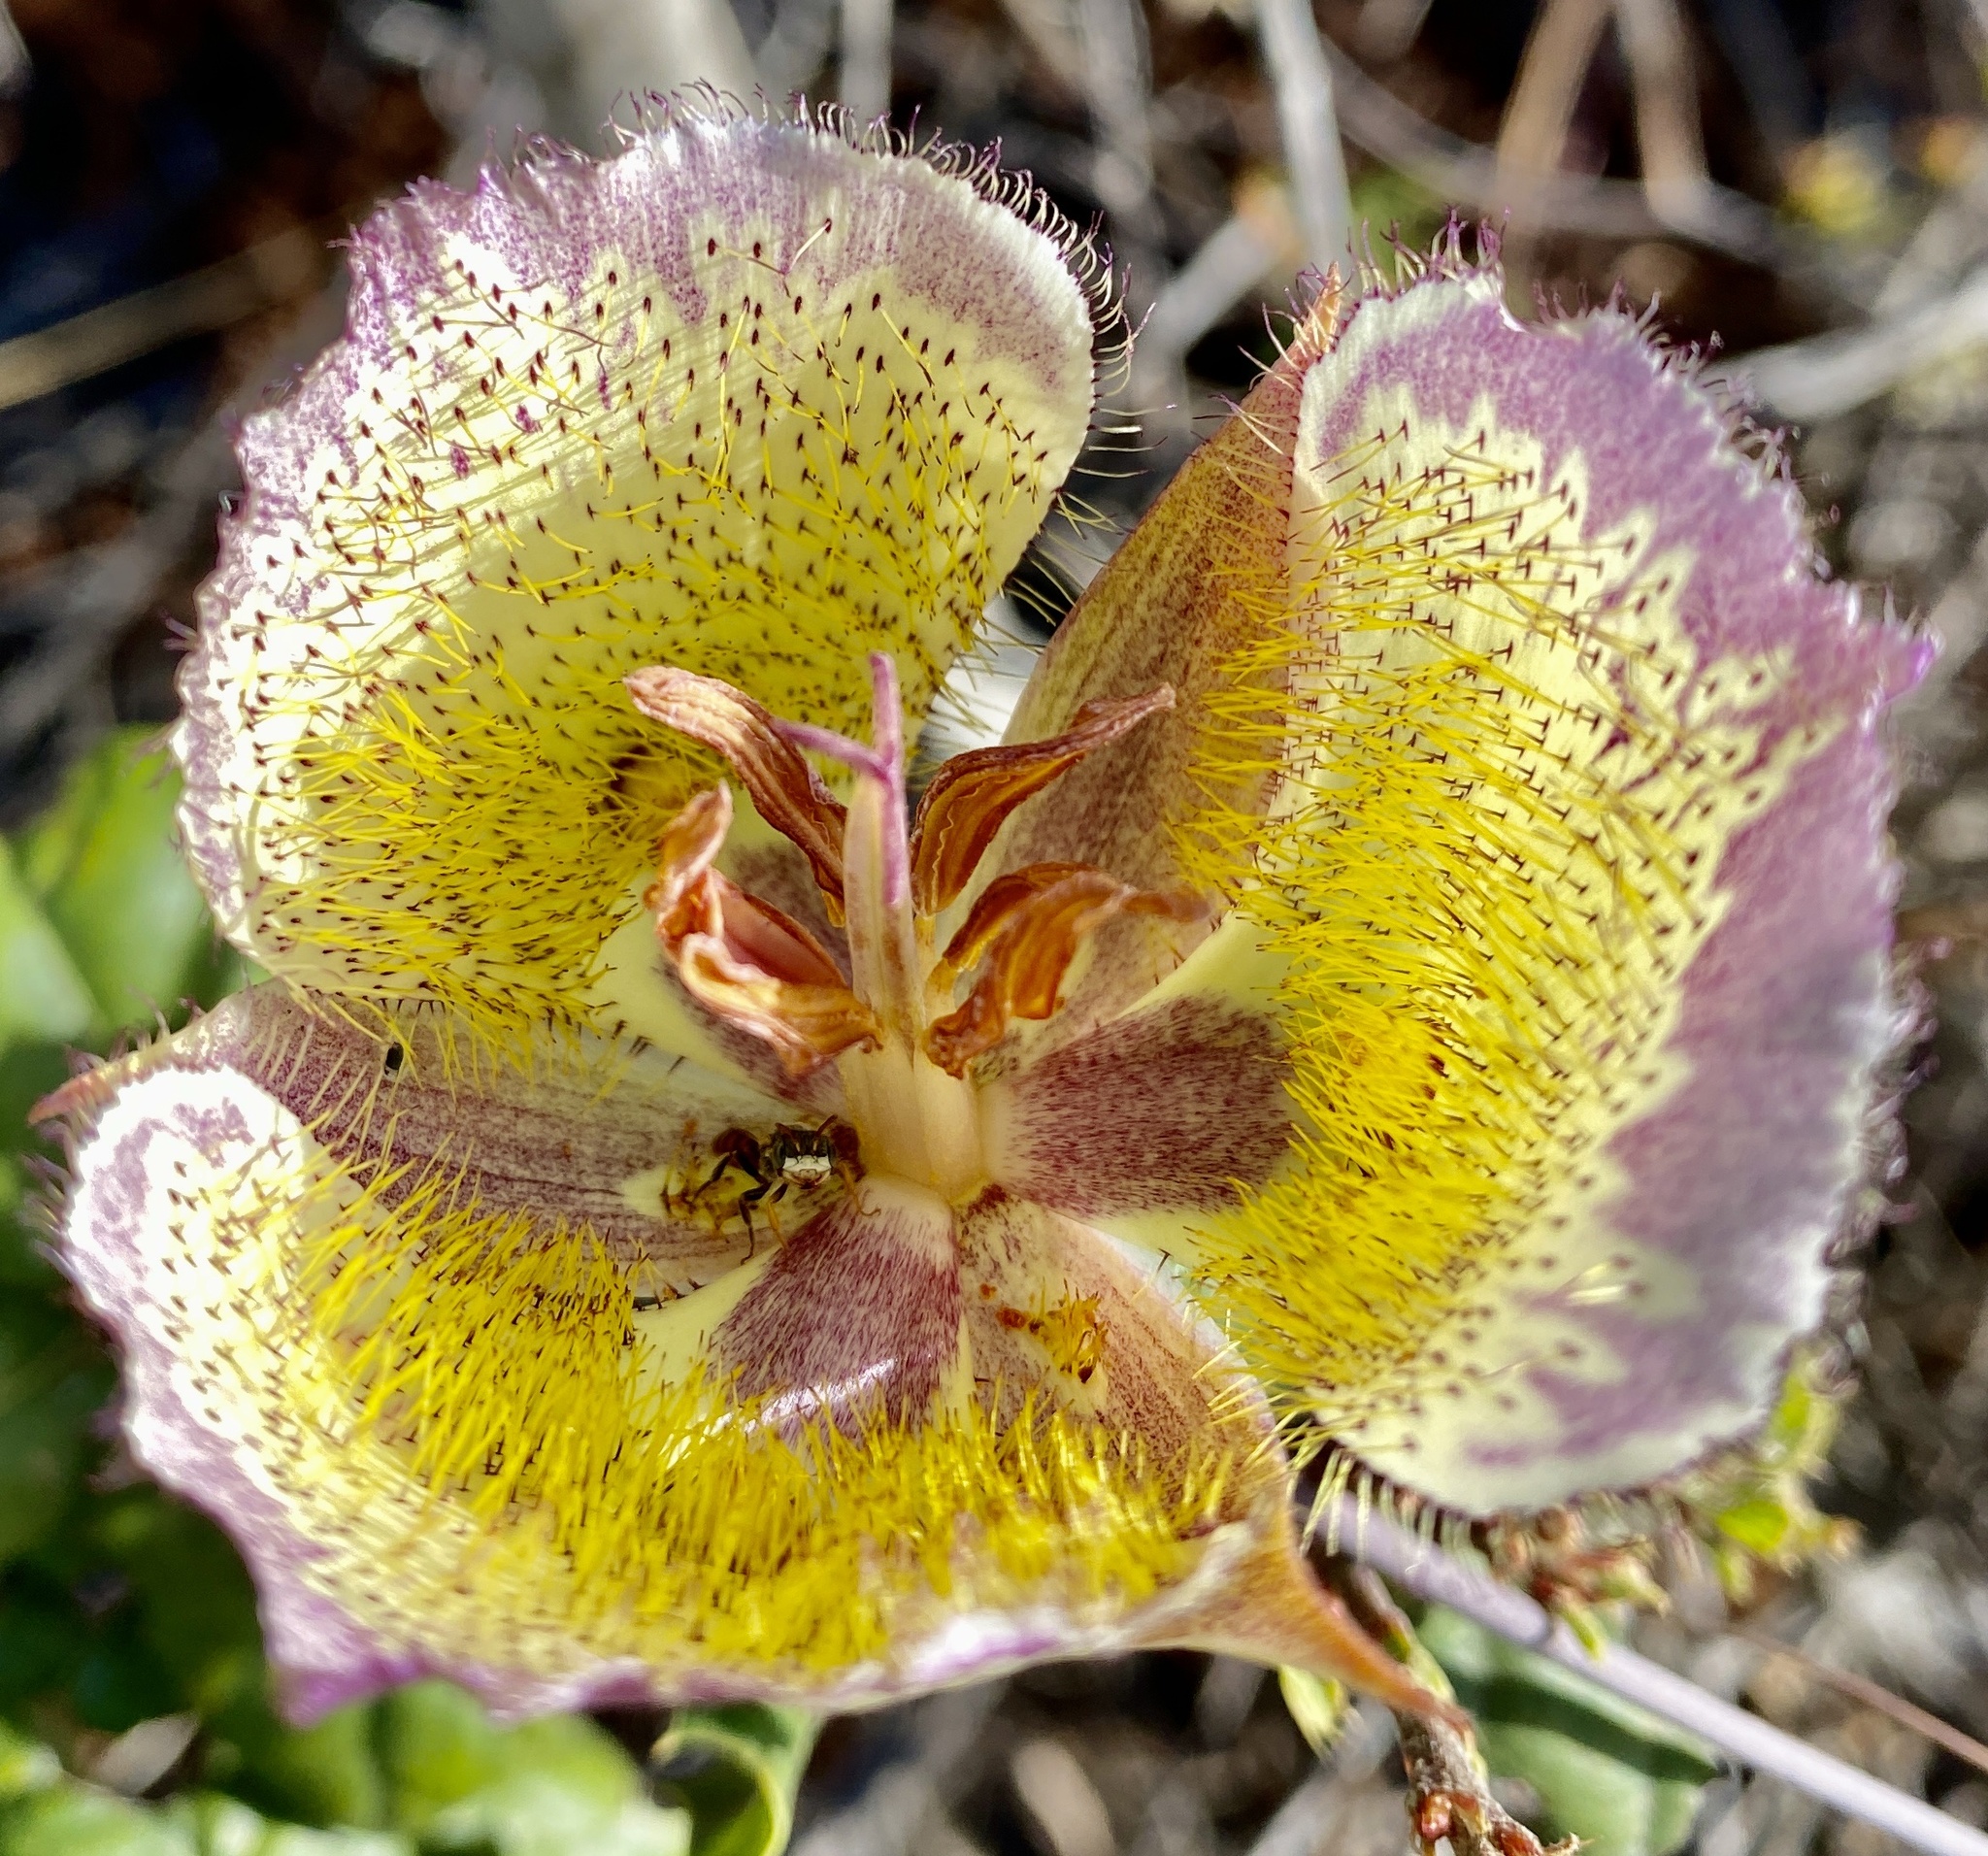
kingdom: Plantae
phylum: Tracheophyta
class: Liliopsida
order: Liliales
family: Liliaceae
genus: Calochortus
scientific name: Calochortus weedii
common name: Weed's mariposa-lily
